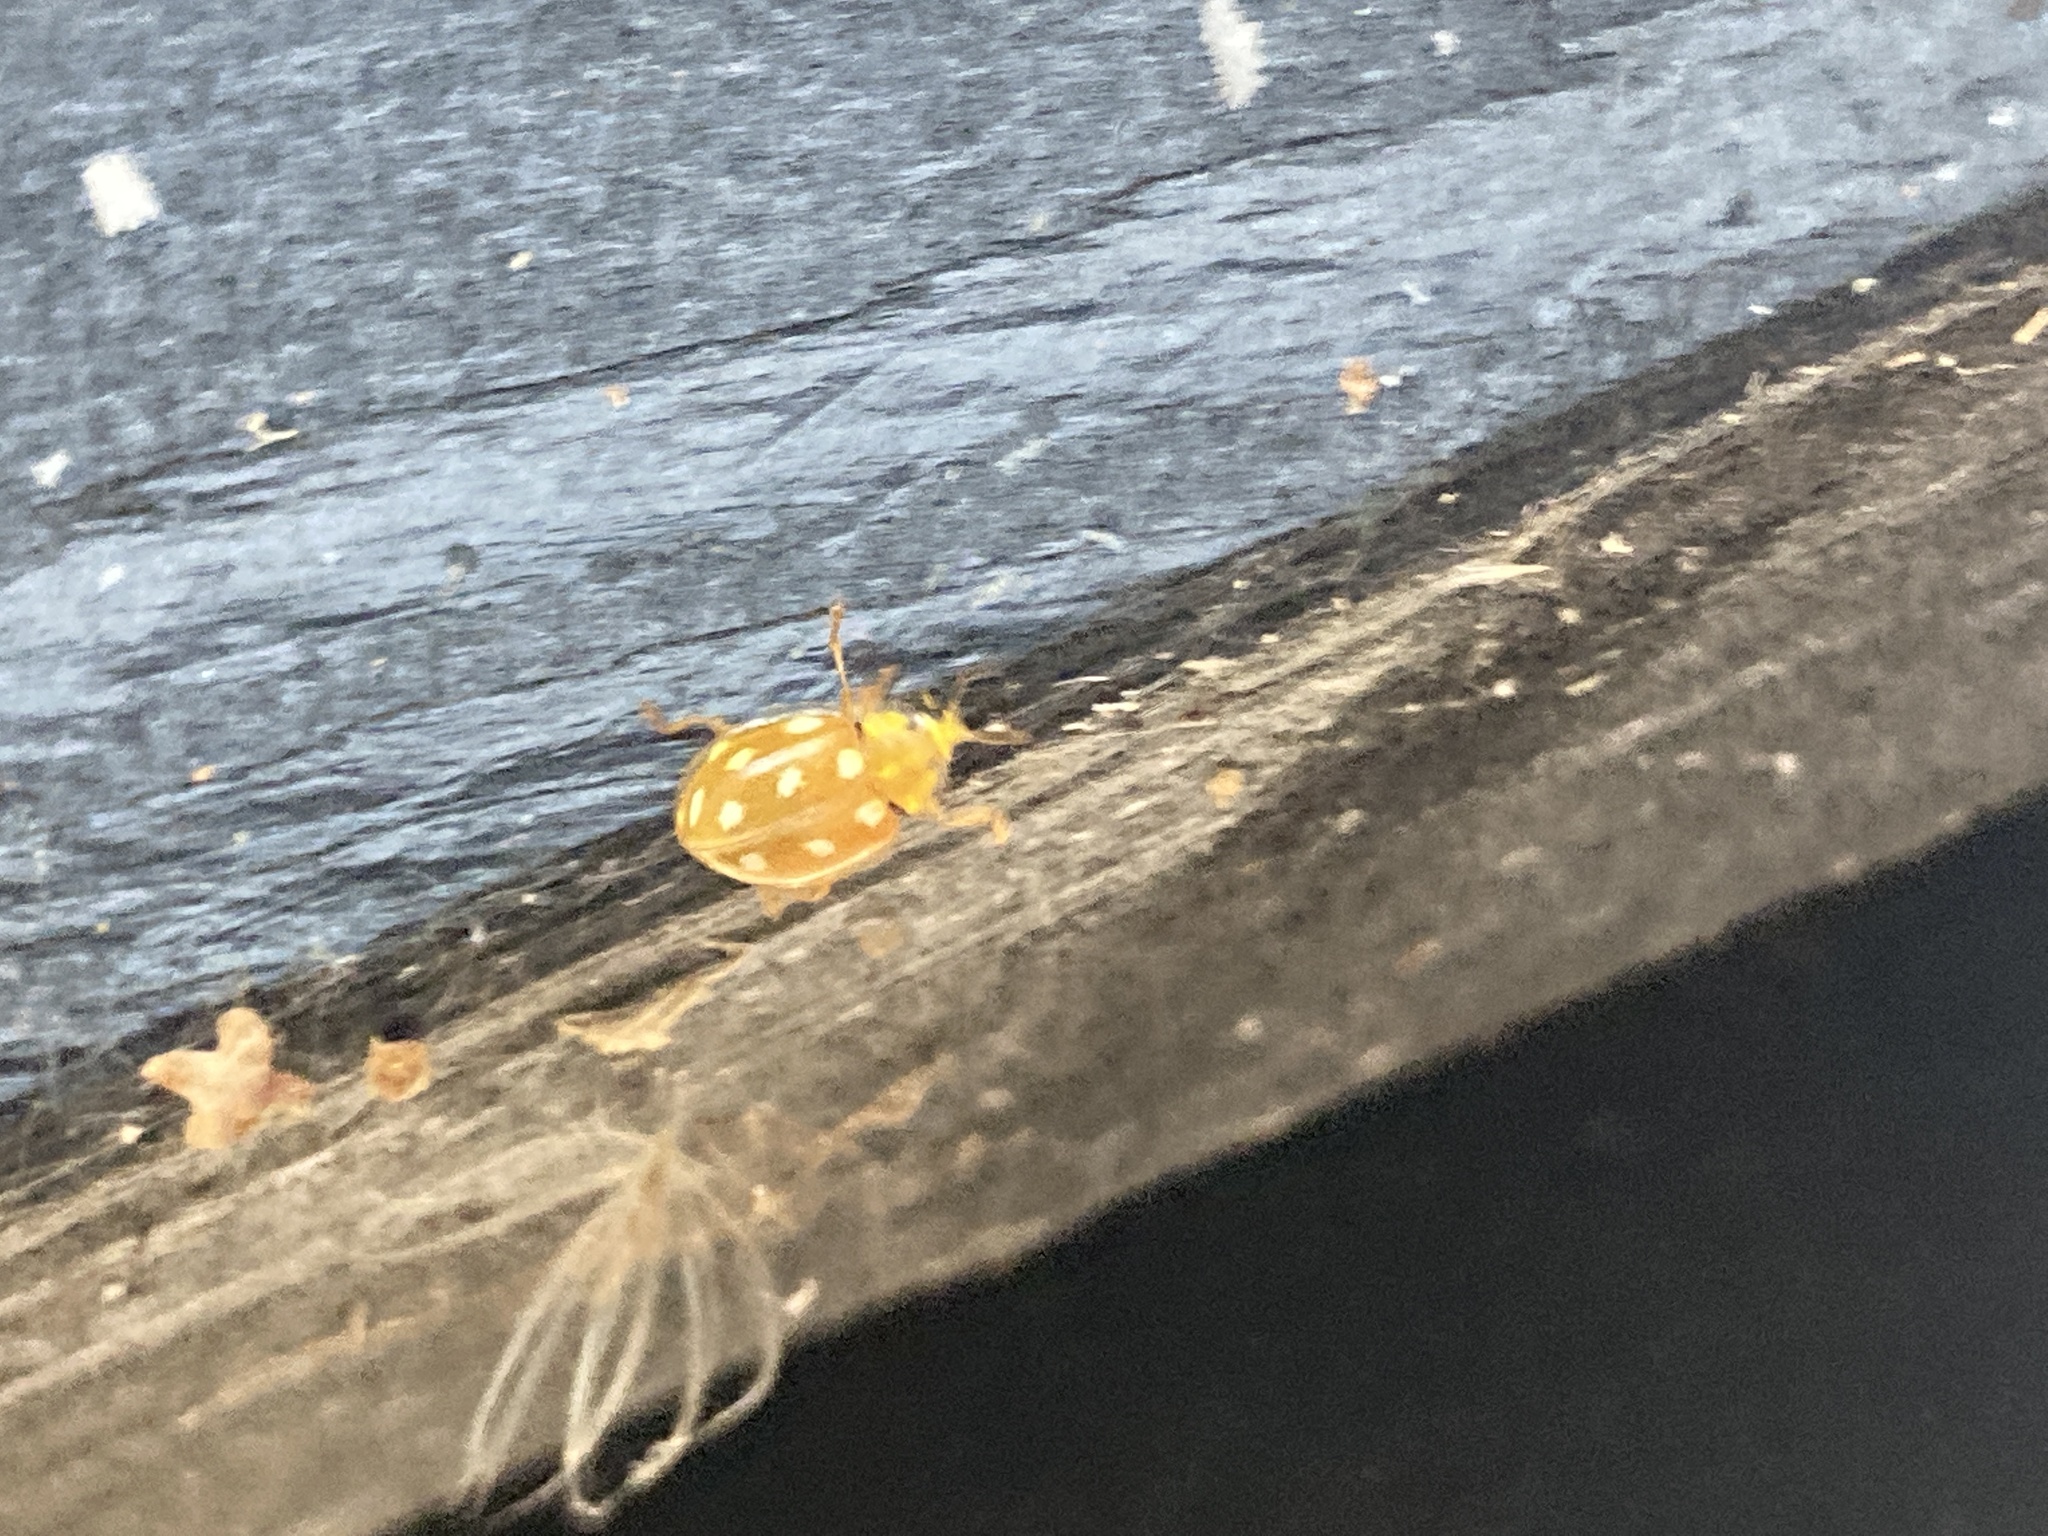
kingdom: Animalia
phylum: Arthropoda
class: Insecta
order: Coleoptera
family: Coccinellidae
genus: Halyzia
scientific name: Halyzia sedecimguttata
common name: Orange ladybird
